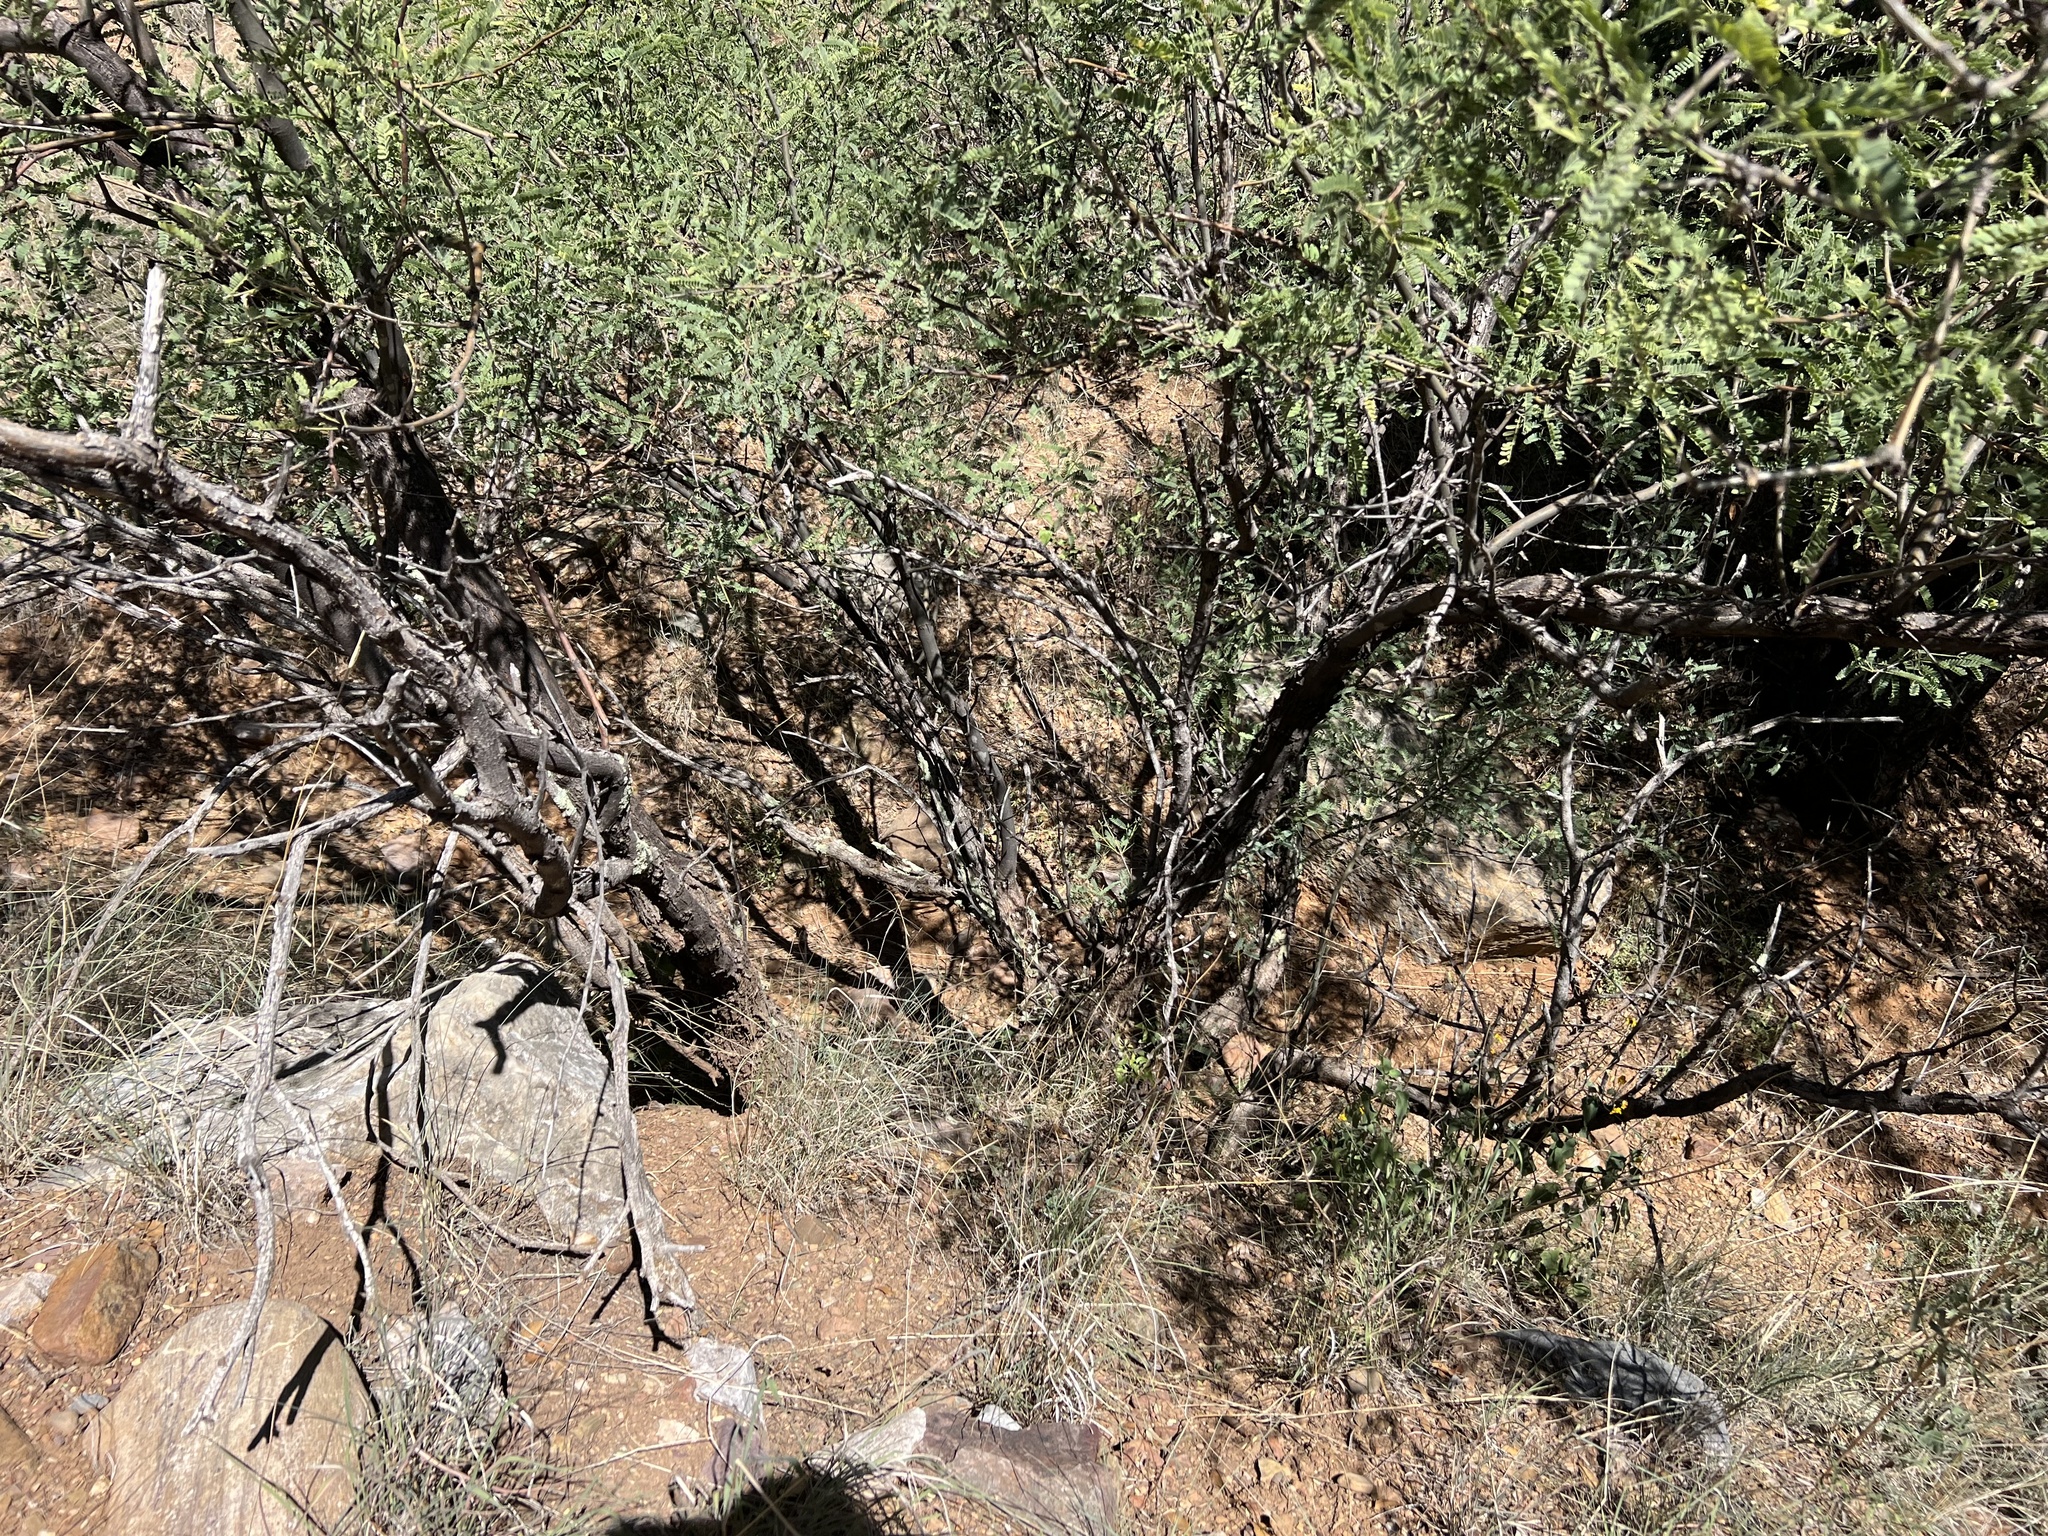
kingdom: Plantae
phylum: Tracheophyta
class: Magnoliopsida
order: Fabales
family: Fabaceae
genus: Prosopis
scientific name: Prosopis velutina
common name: Velvet mesquite
